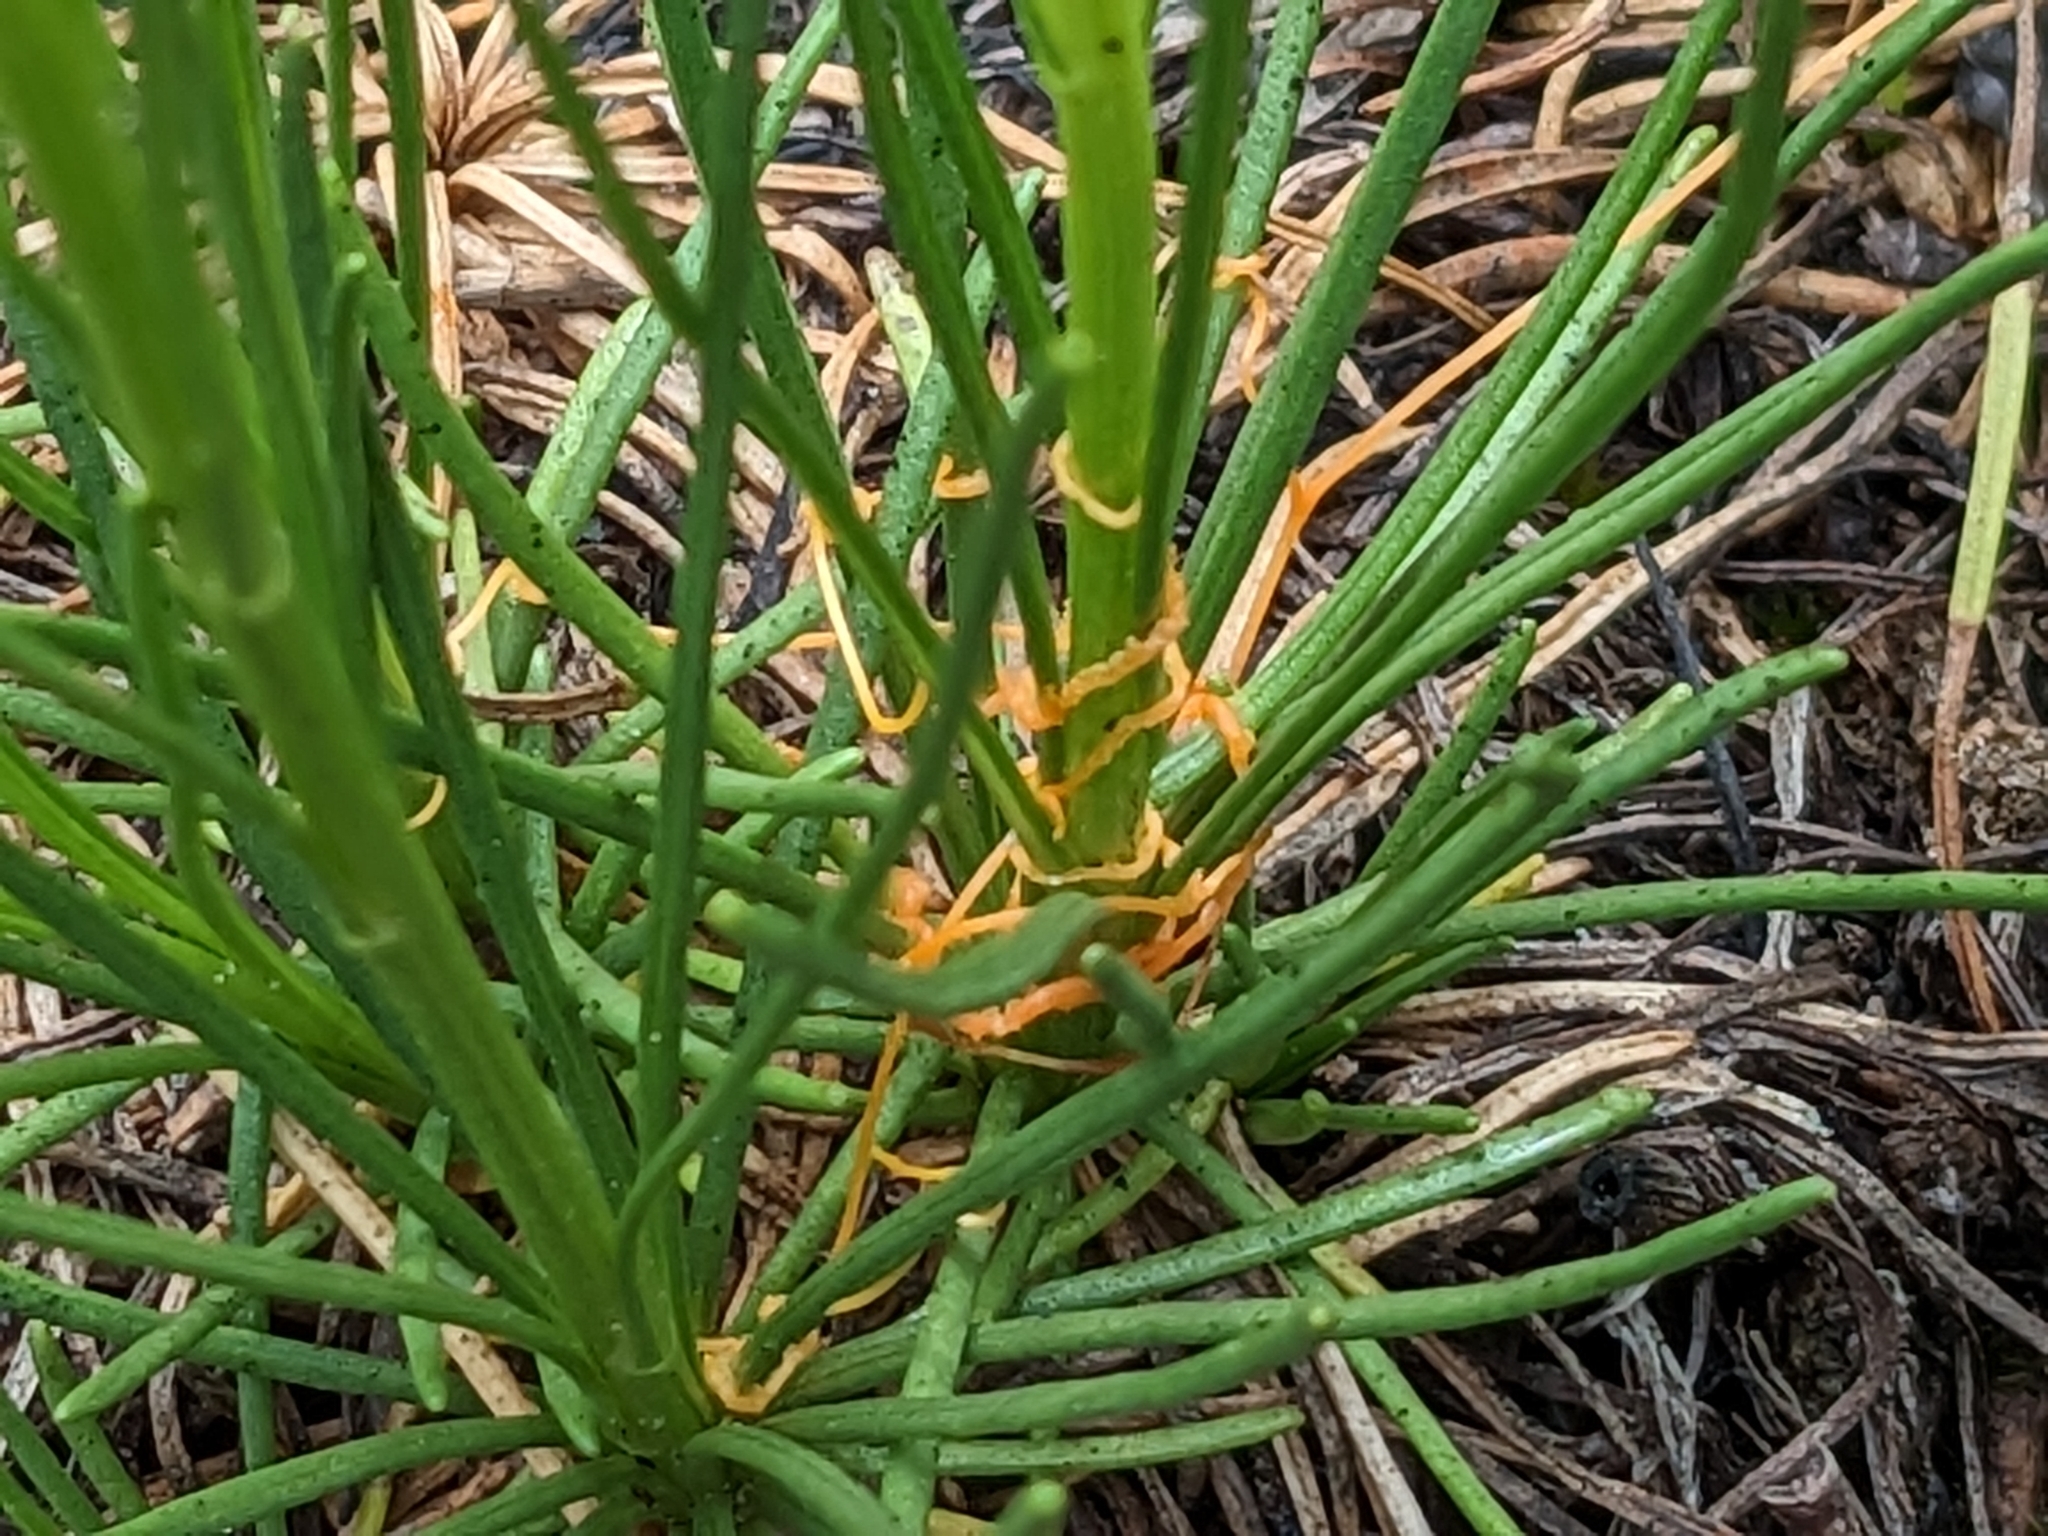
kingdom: Plantae
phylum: Tracheophyta
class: Magnoliopsida
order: Solanales
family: Convolvulaceae
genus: Cuscuta
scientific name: Cuscuta harperi
